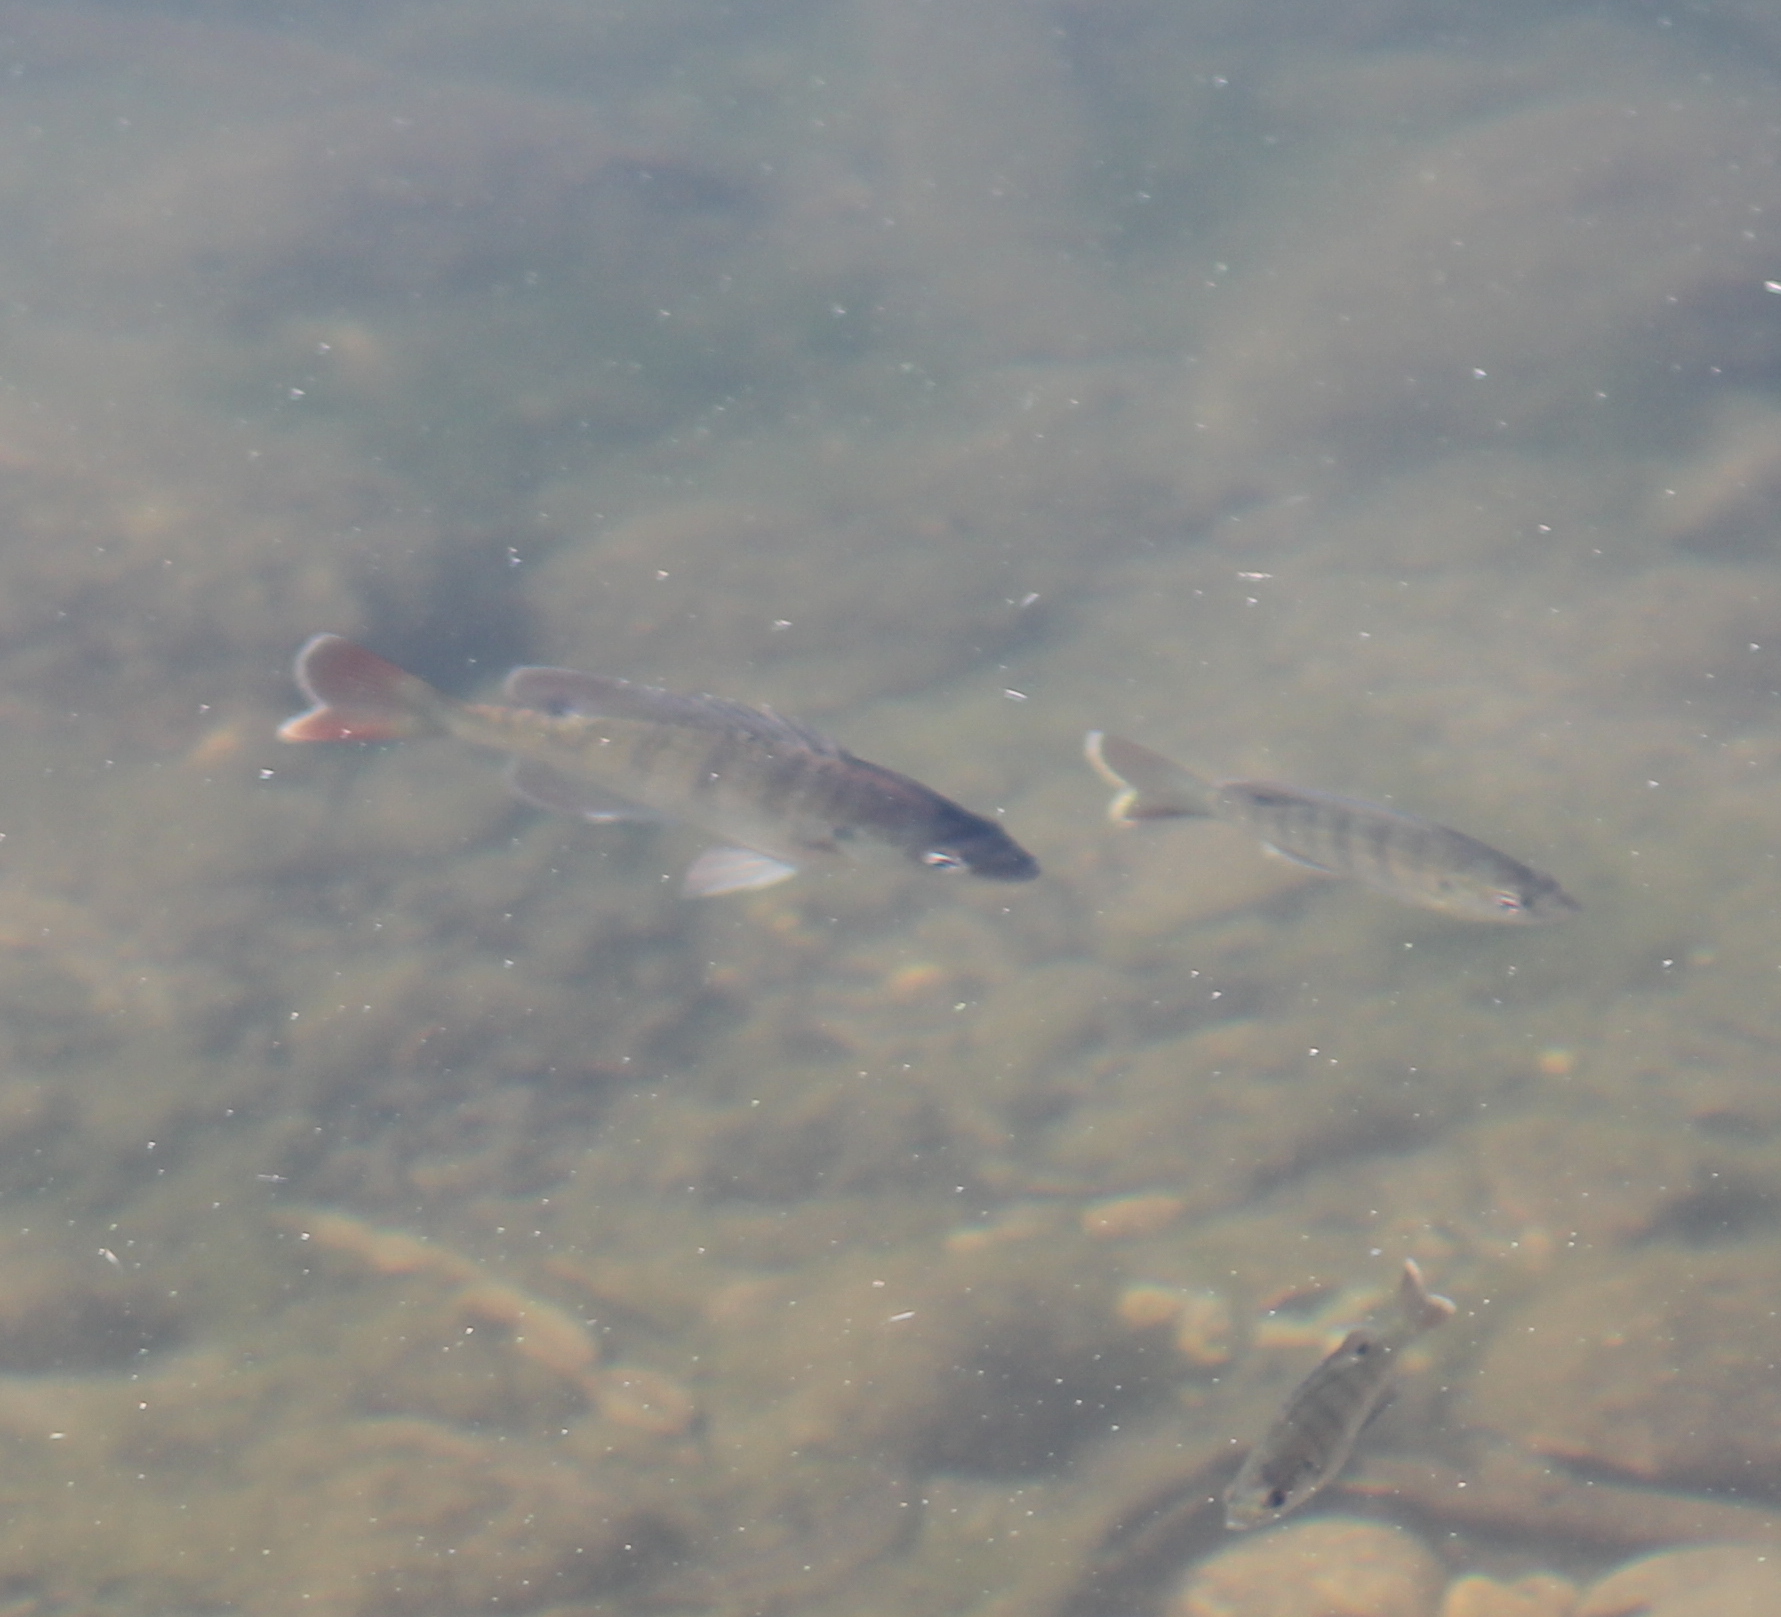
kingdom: Animalia
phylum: Chordata
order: Perciformes
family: Centrarchidae
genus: Lepomis
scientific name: Lepomis macrochirus
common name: Bluegill
